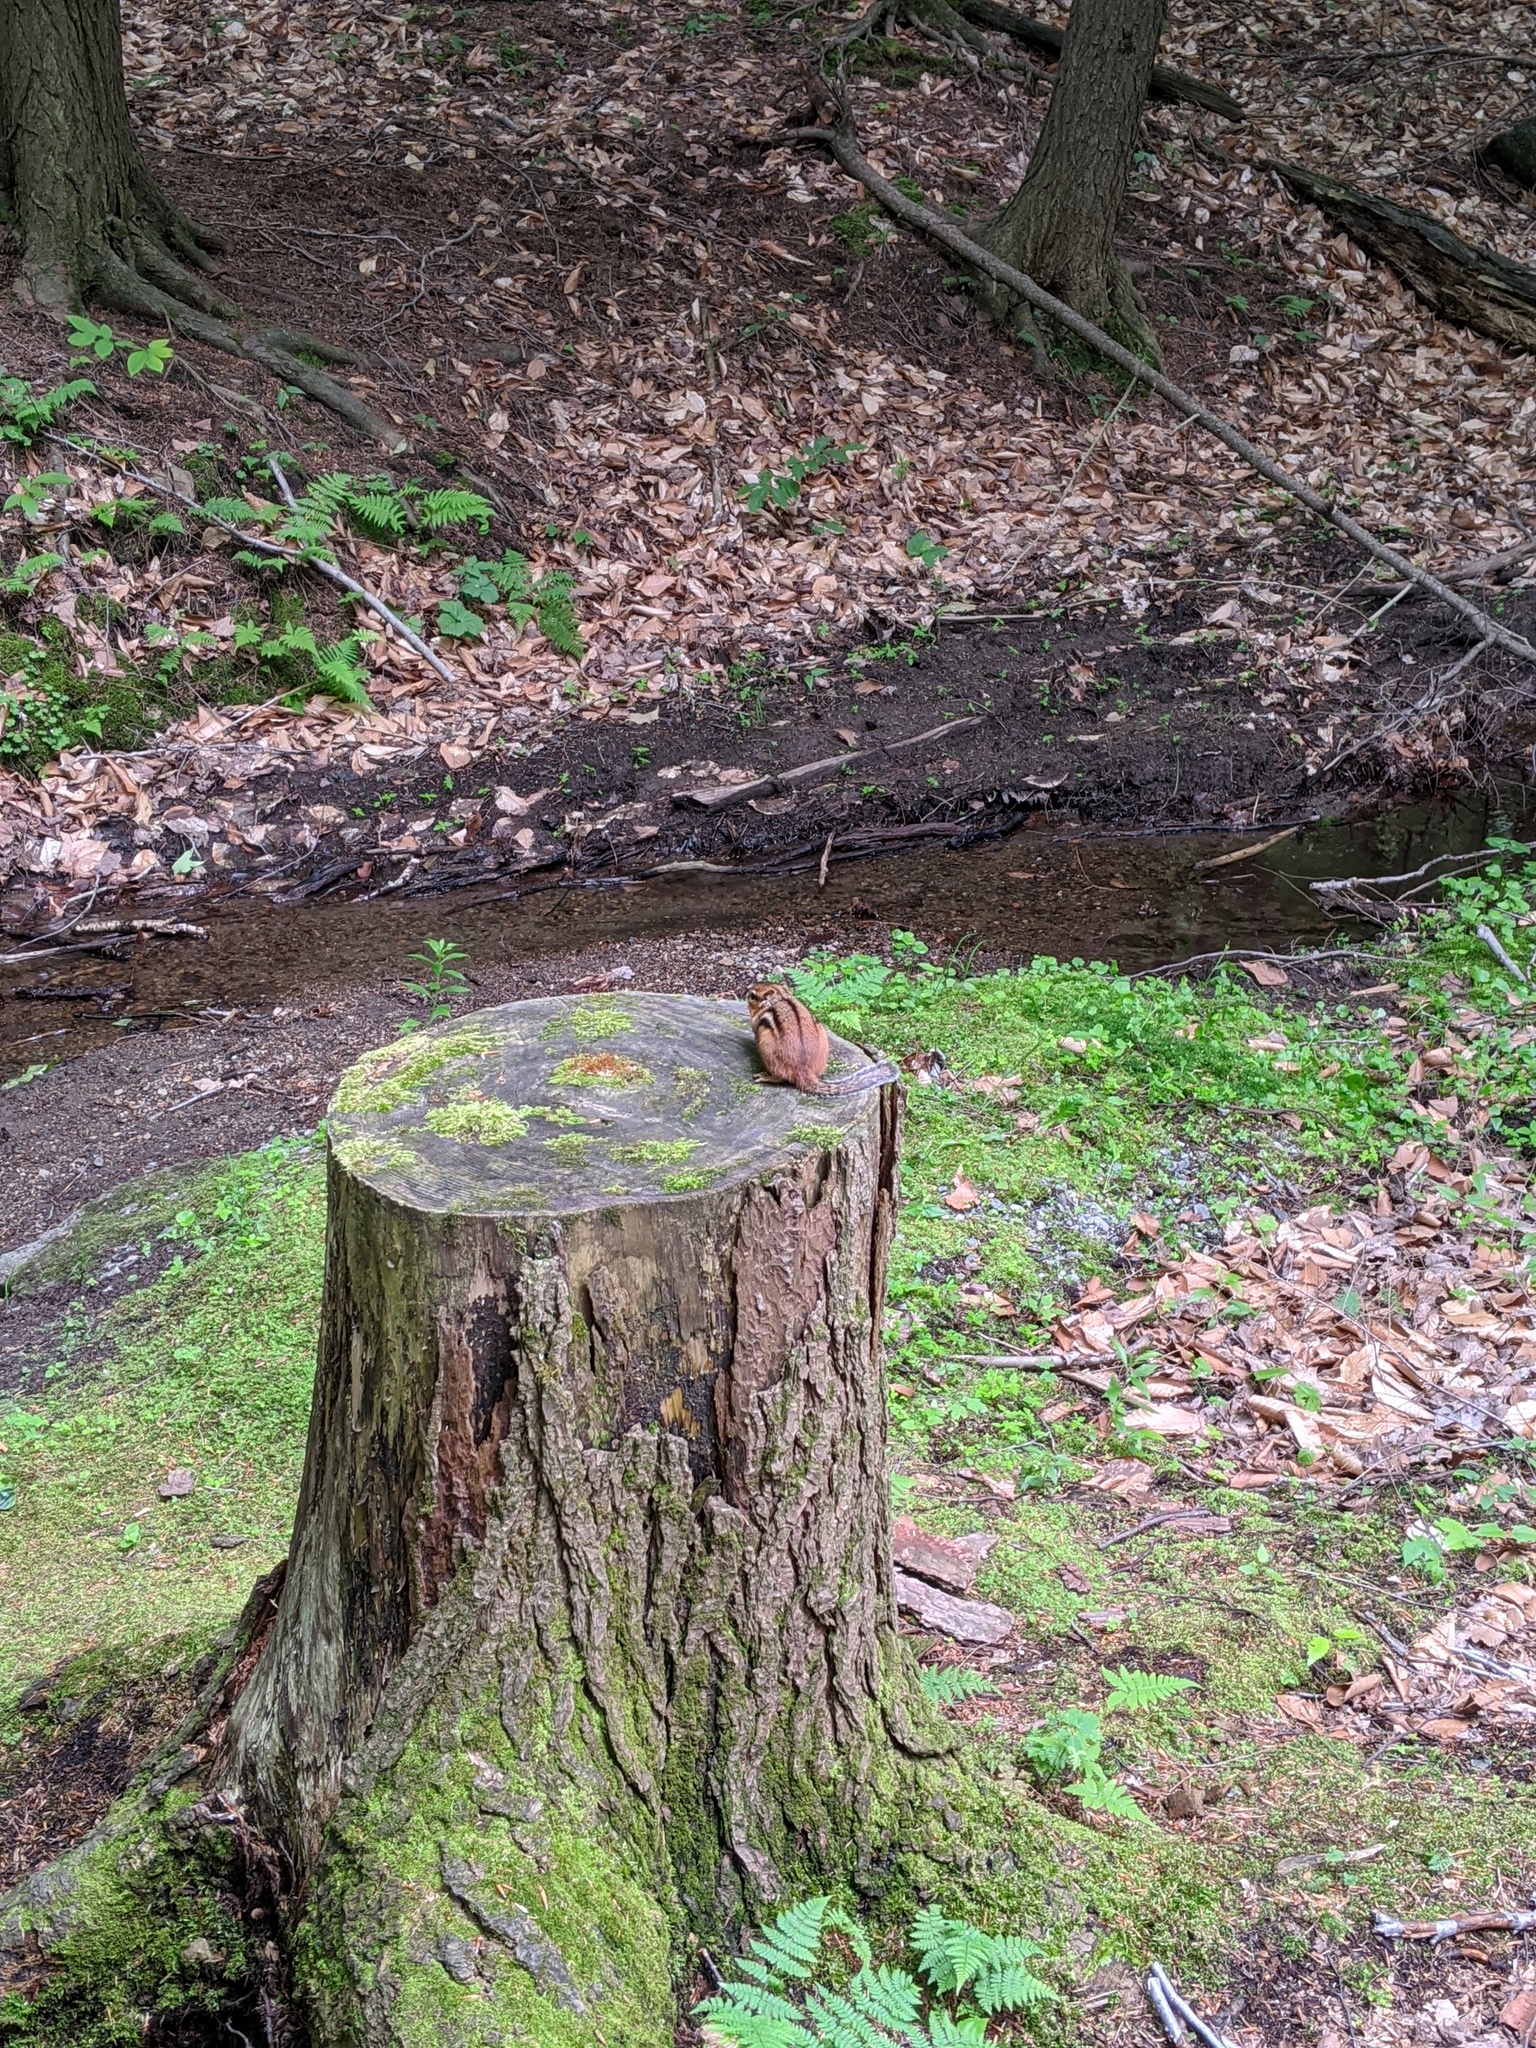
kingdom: Animalia
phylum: Chordata
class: Mammalia
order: Rodentia
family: Sciuridae
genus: Tamias
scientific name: Tamias striatus
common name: Eastern chipmunk
